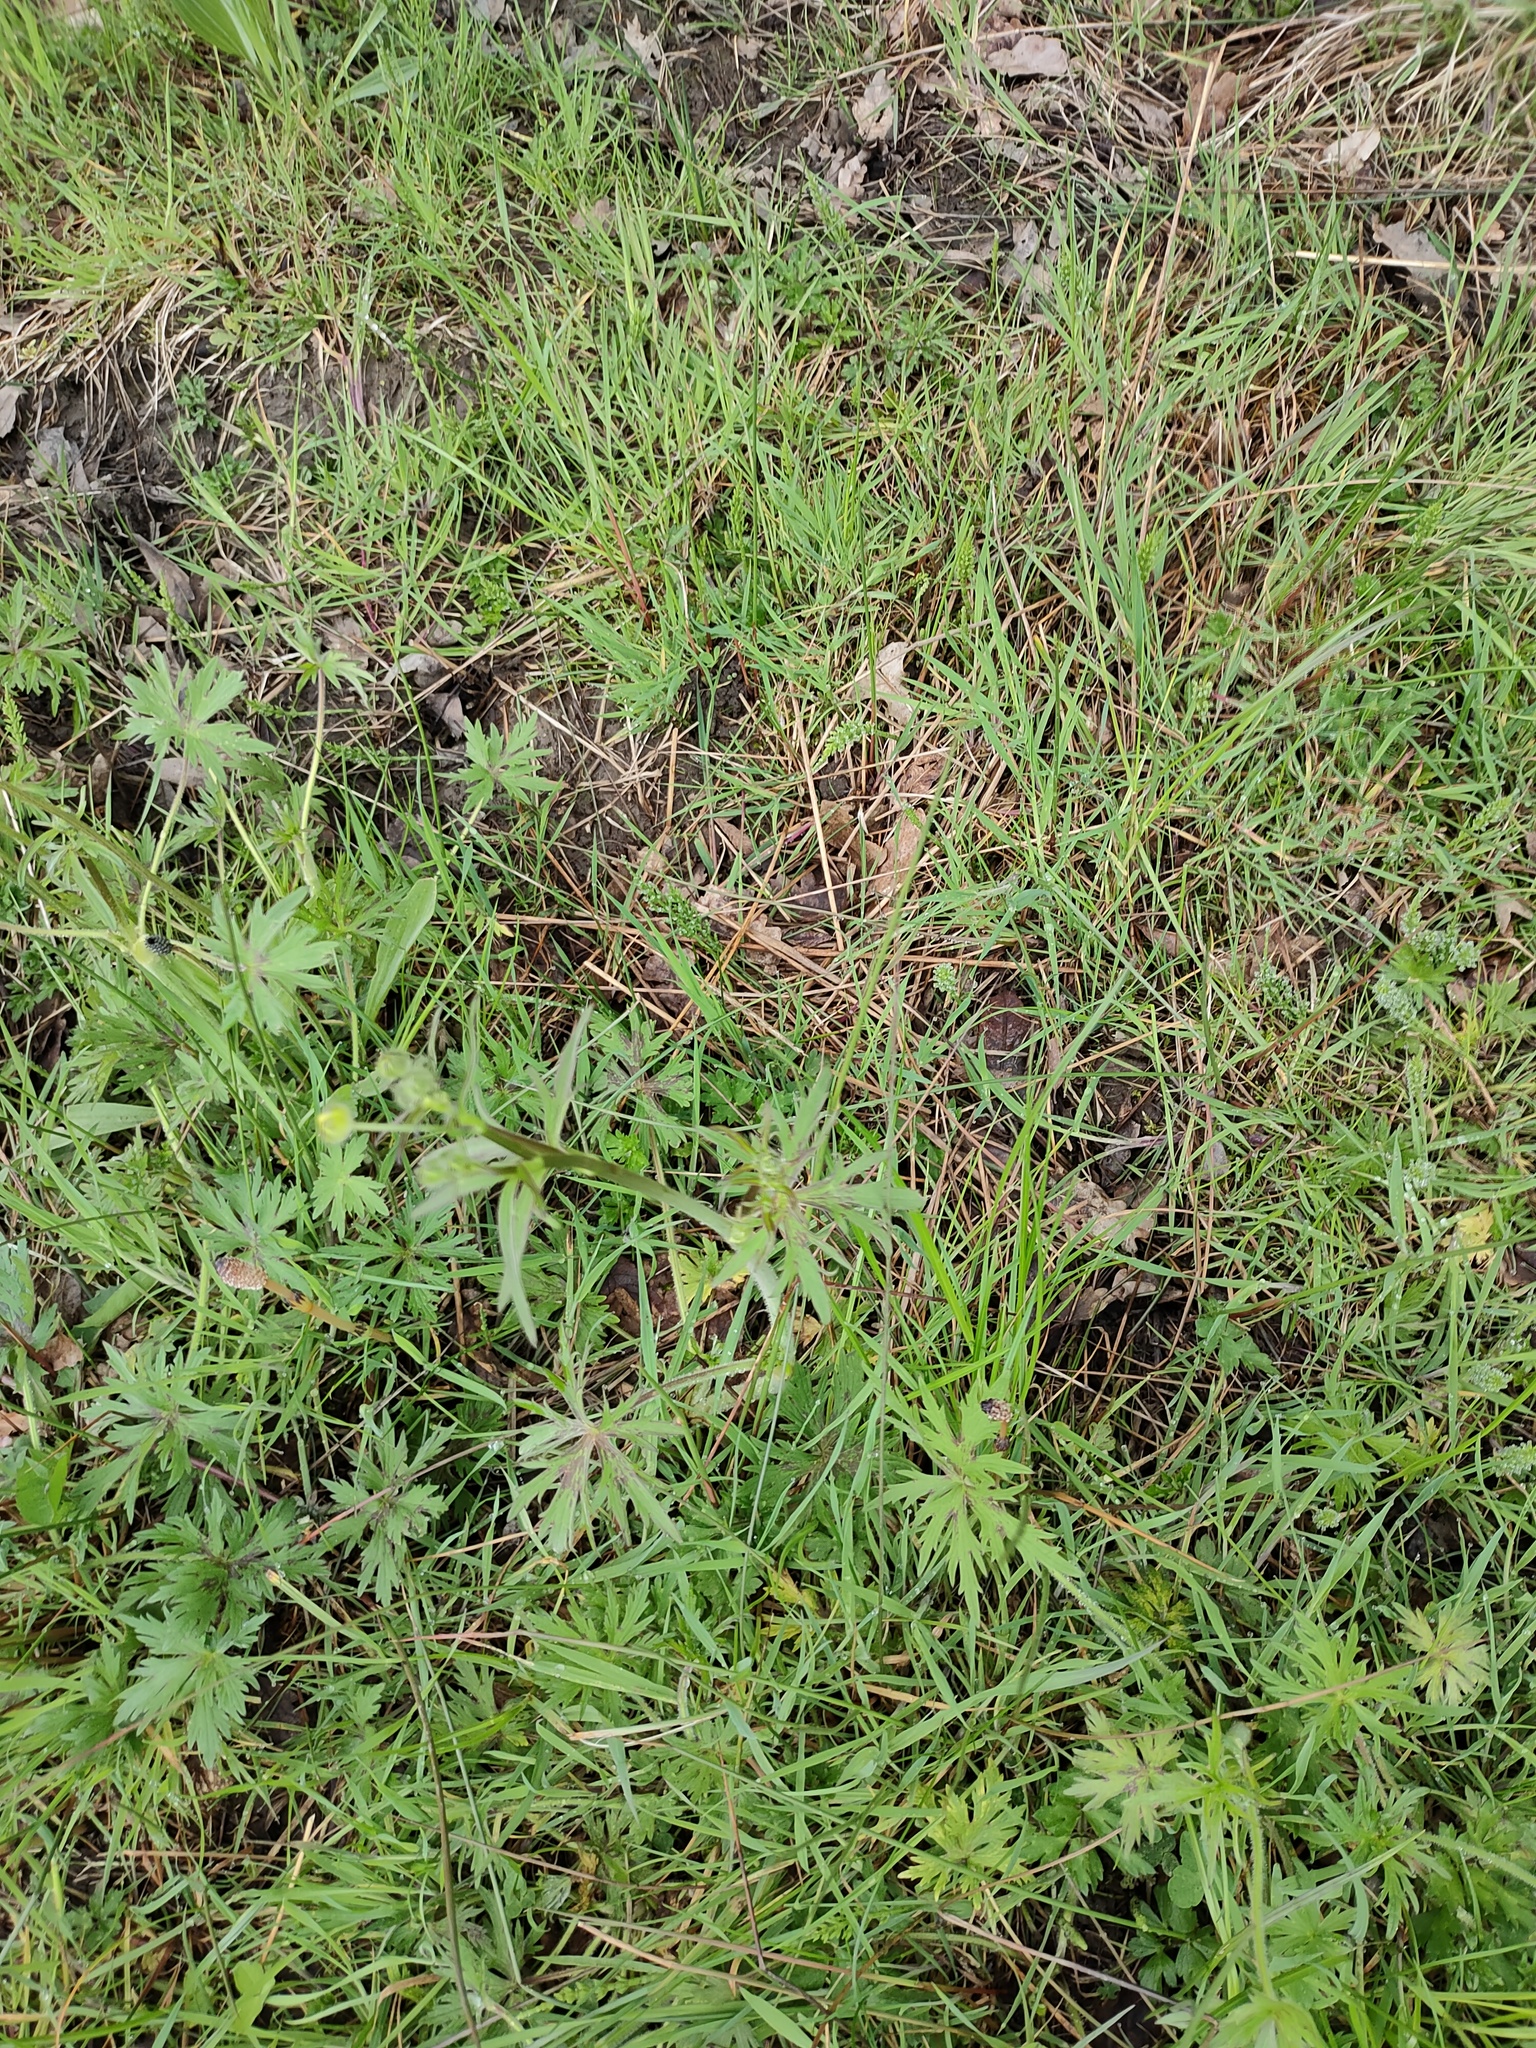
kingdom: Plantae
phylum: Tracheophyta
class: Magnoliopsida
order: Ranunculales
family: Ranunculaceae
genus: Ranunculus
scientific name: Ranunculus acris
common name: Meadow buttercup
